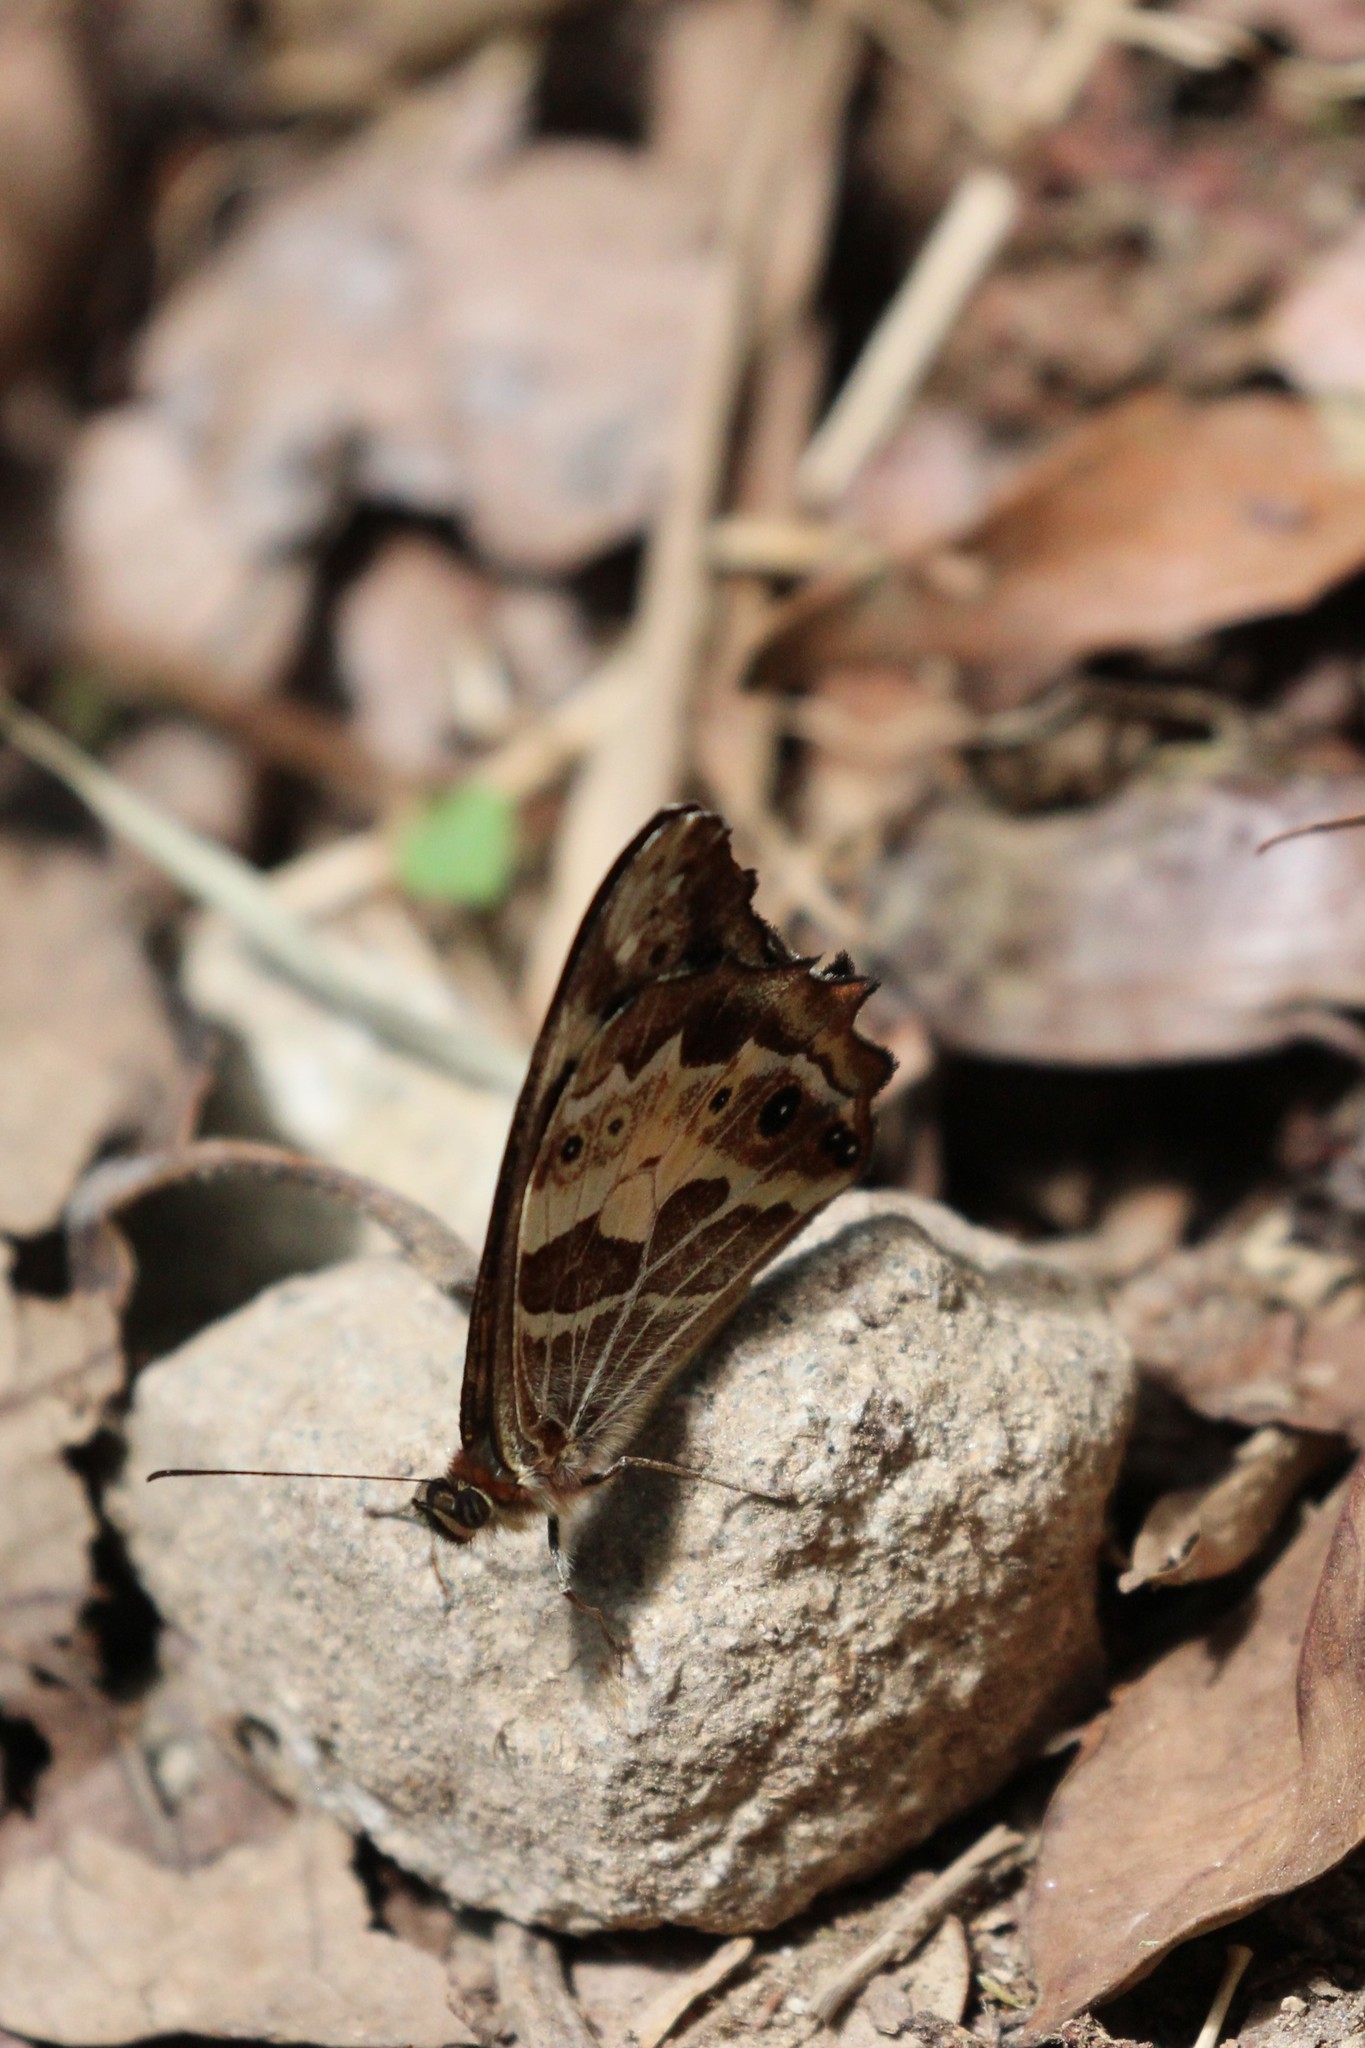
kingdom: Animalia
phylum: Arthropoda
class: Insecta
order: Lepidoptera
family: Nymphalidae
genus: Dioriste
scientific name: Dioriste tauropolis
